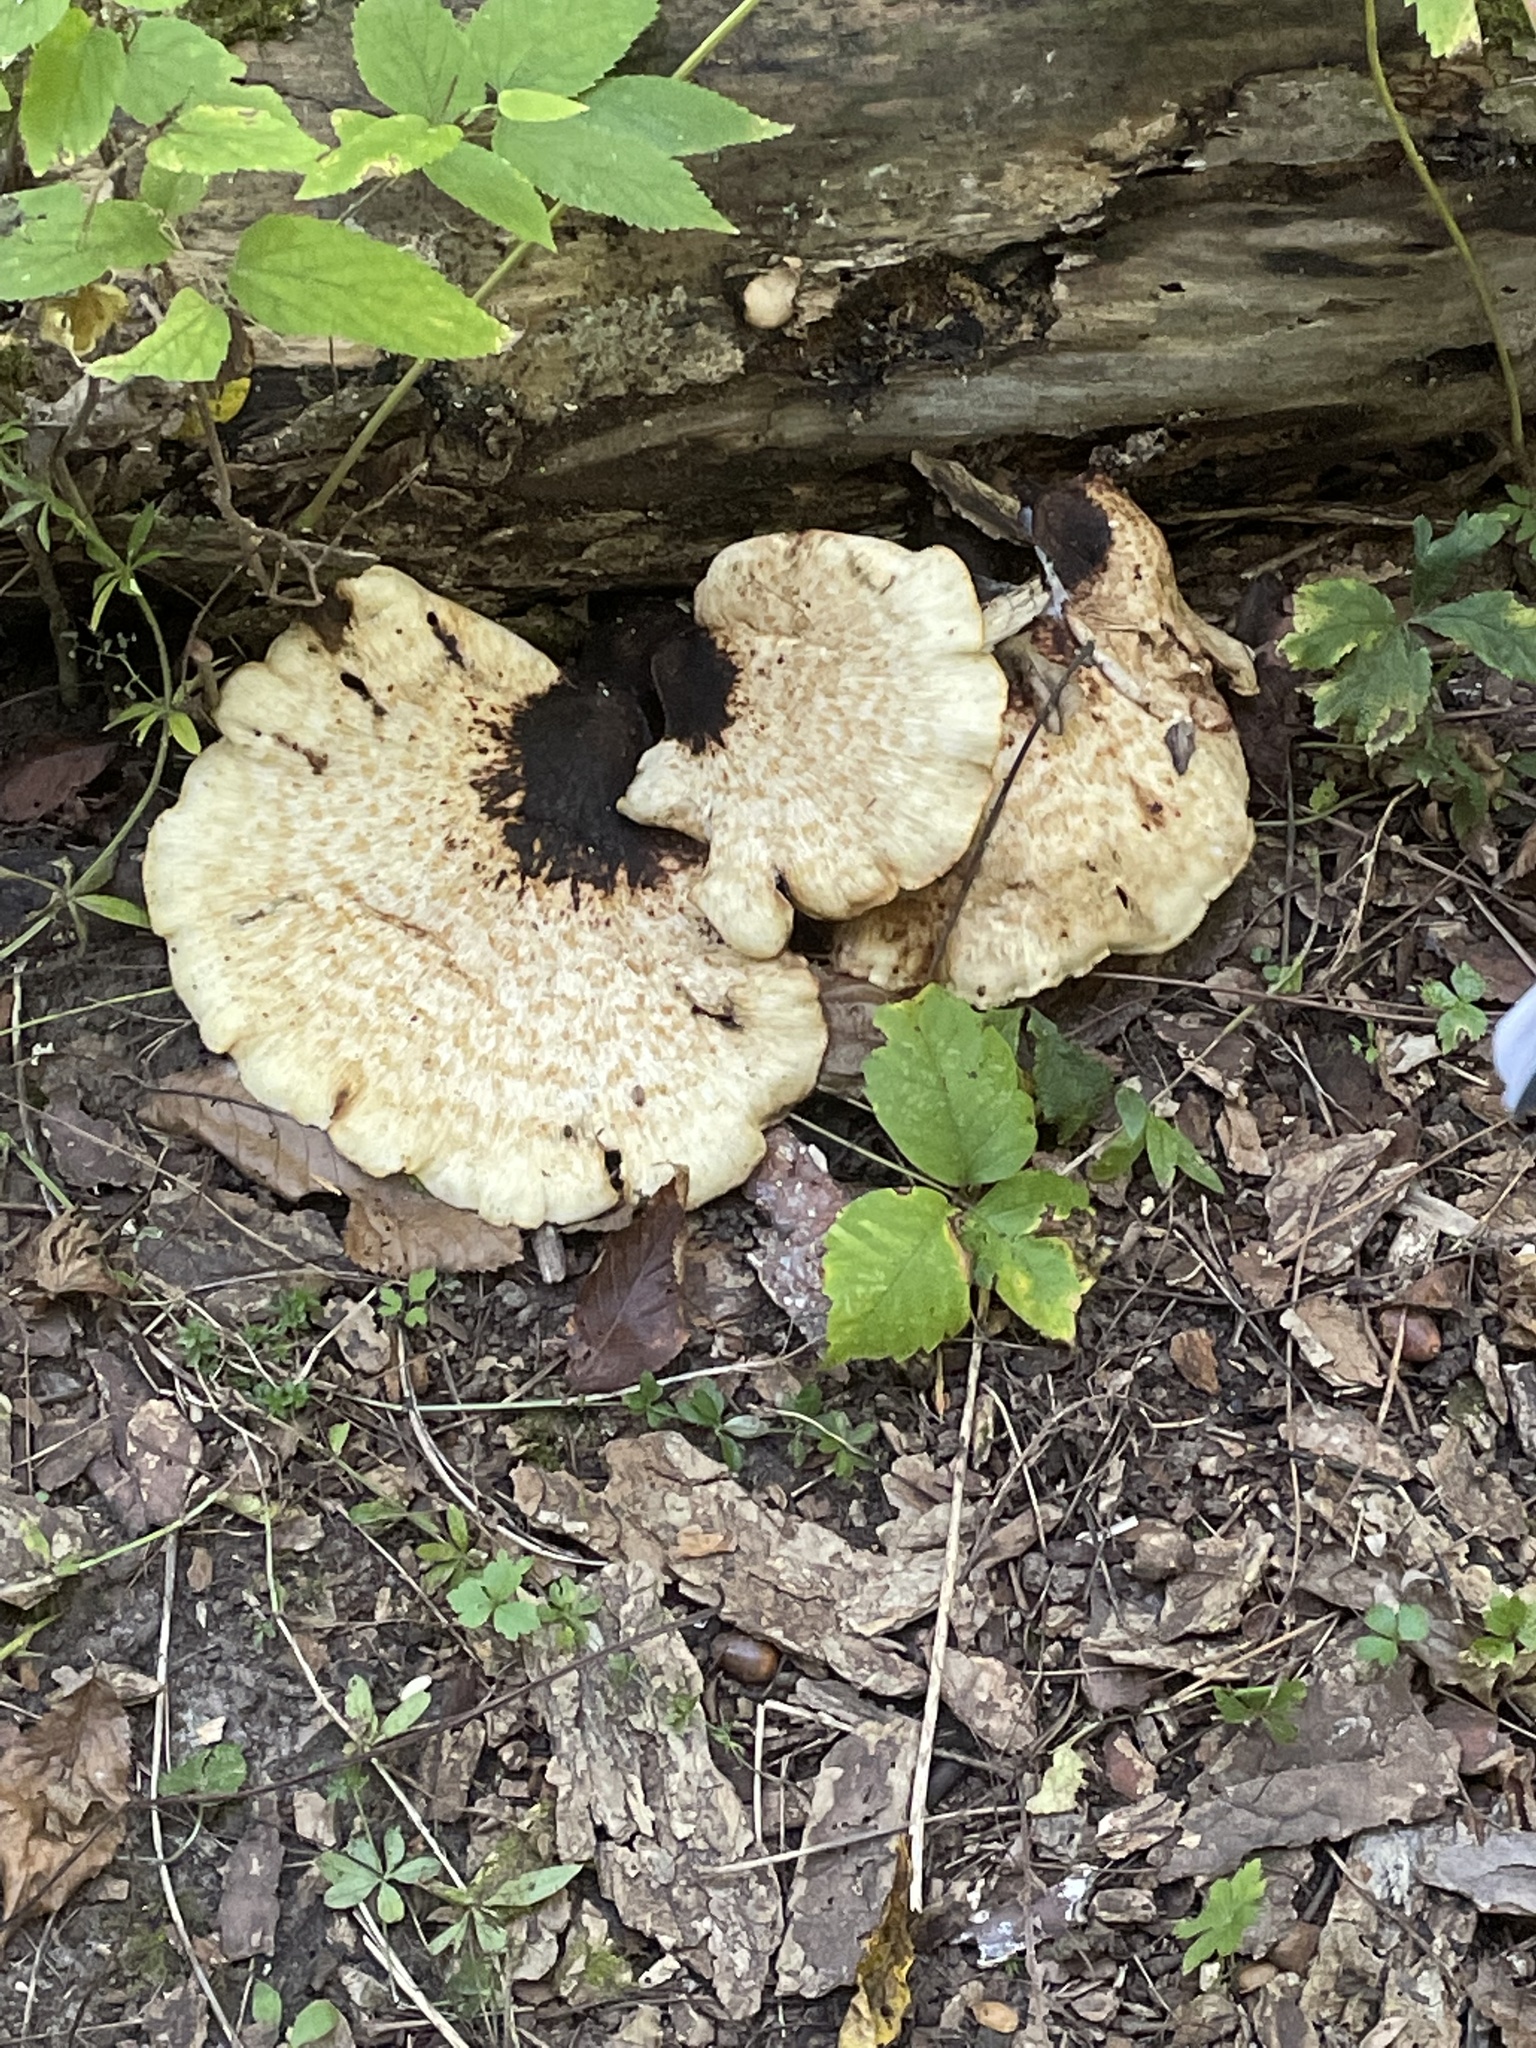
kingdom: Fungi
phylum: Basidiomycota
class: Agaricomycetes
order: Polyporales
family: Polyporaceae
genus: Cerioporus
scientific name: Cerioporus squamosus
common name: Dryad's saddle
